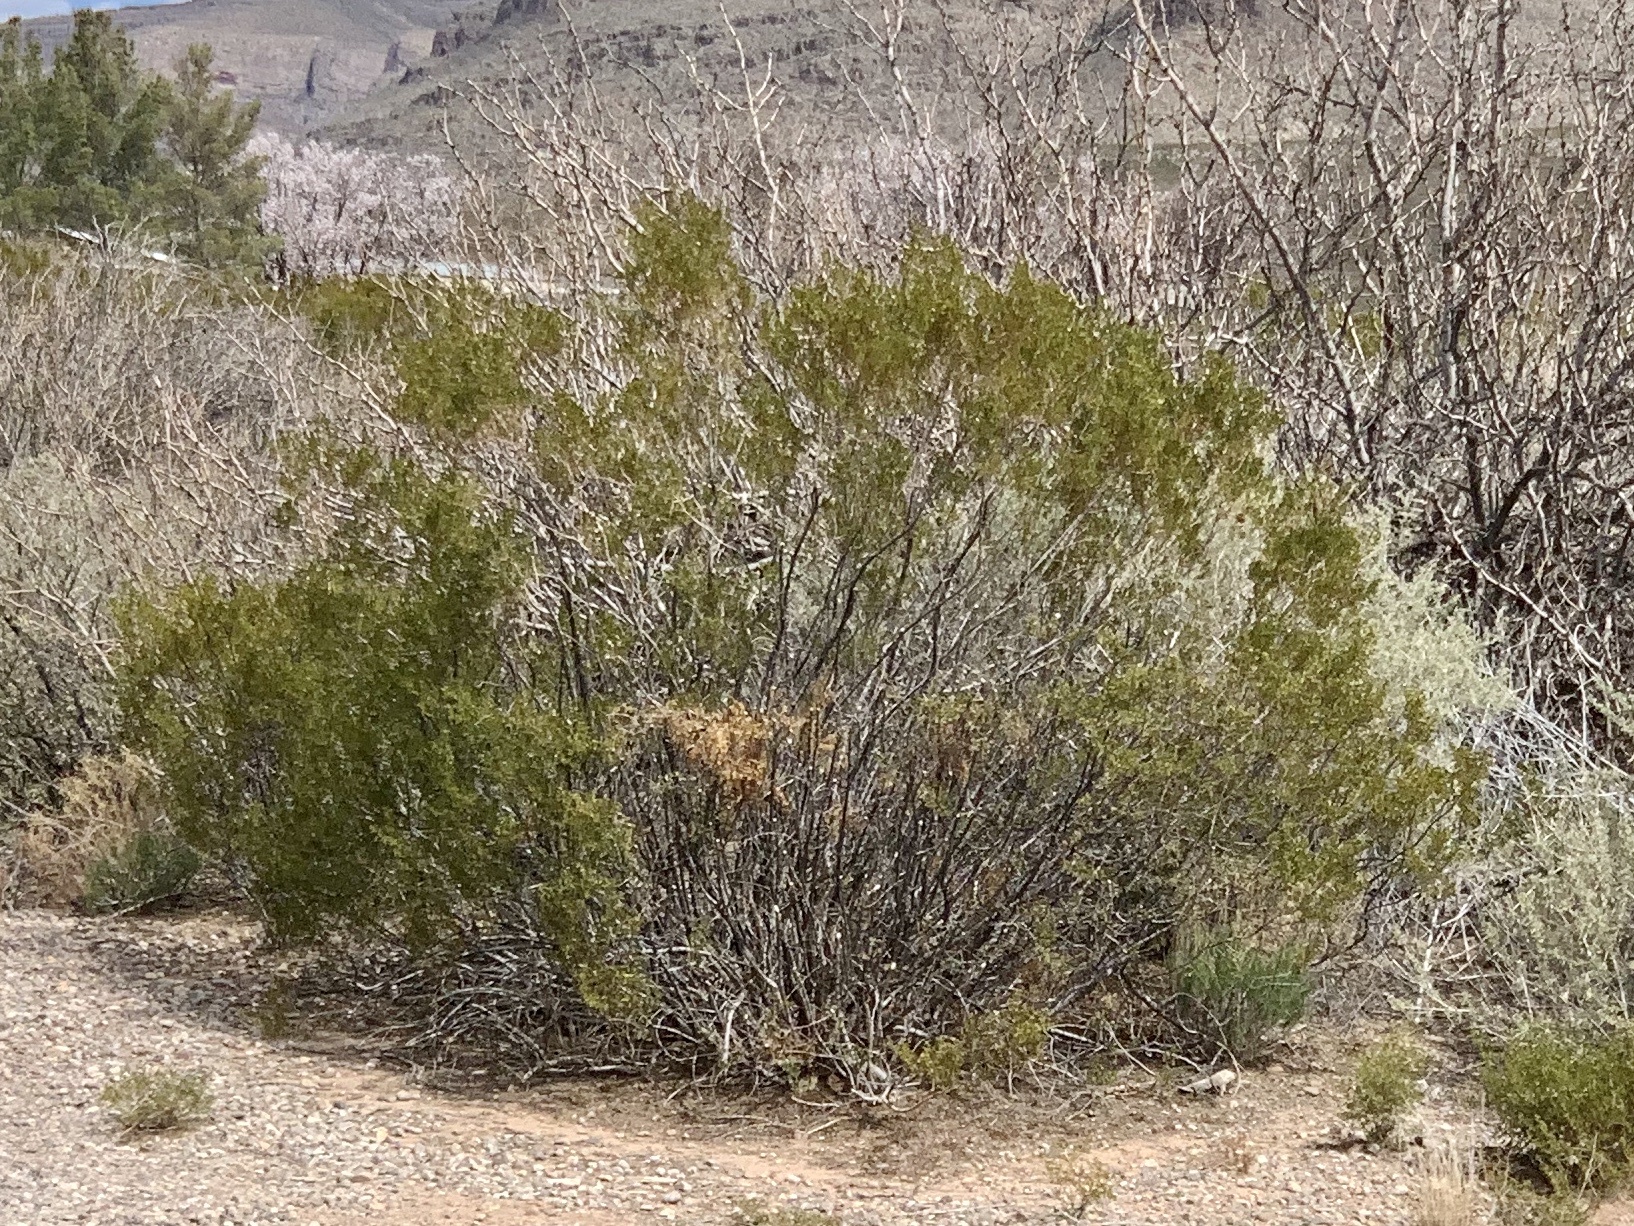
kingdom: Plantae
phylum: Tracheophyta
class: Magnoliopsida
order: Zygophyllales
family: Zygophyllaceae
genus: Larrea
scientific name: Larrea tridentata
